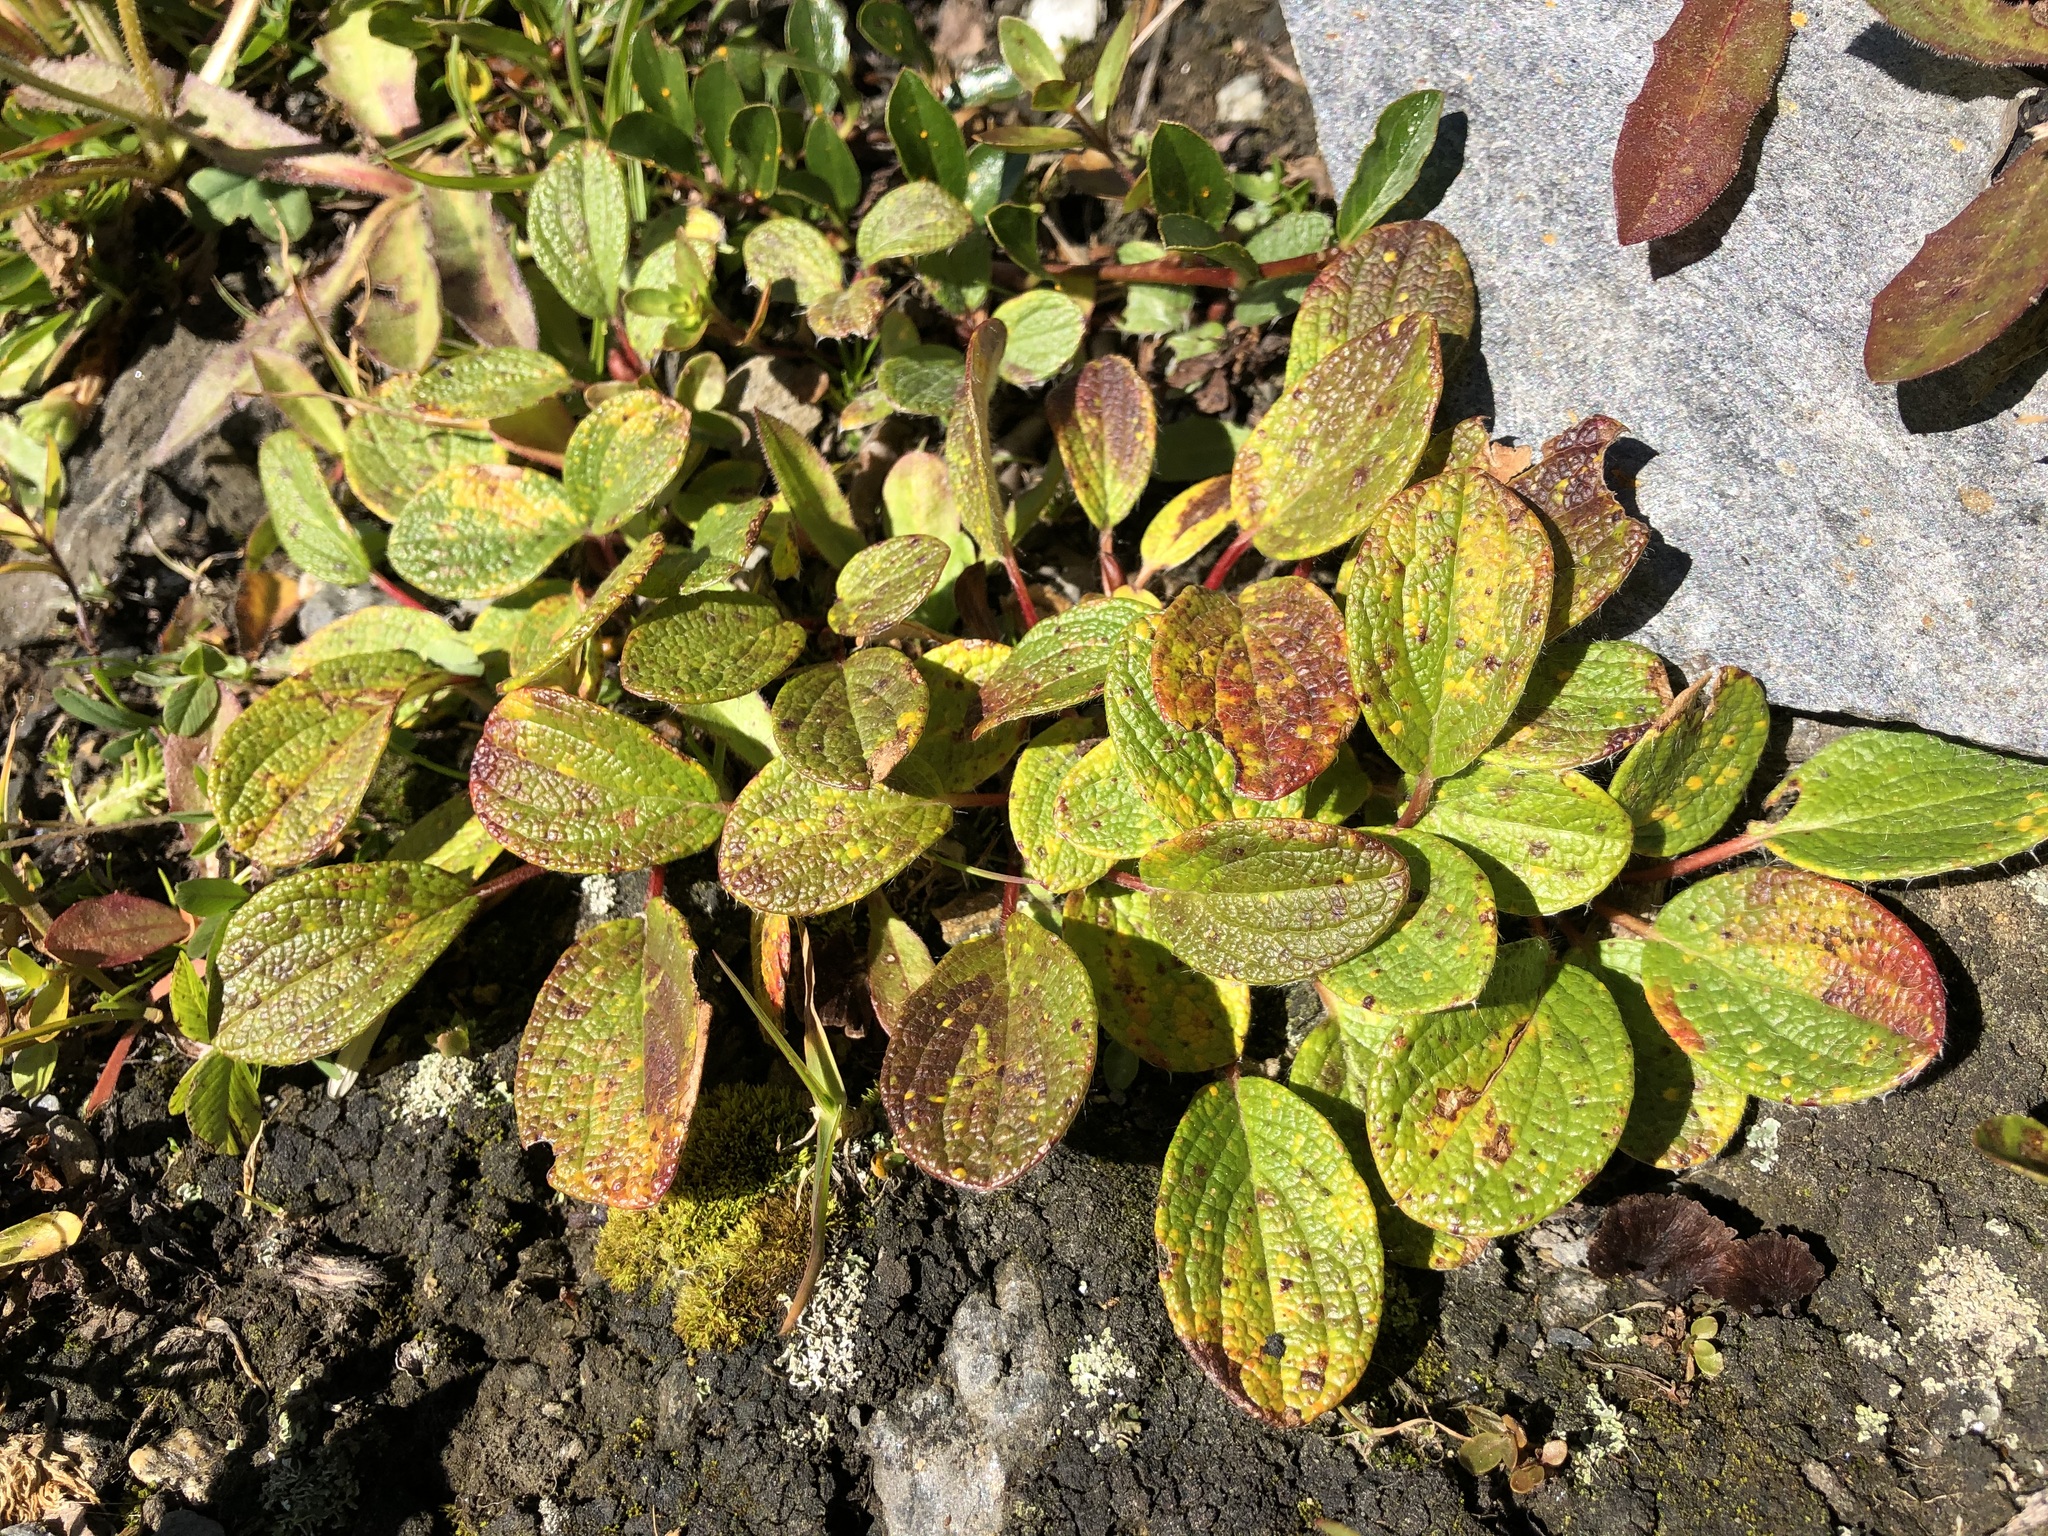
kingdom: Plantae
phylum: Tracheophyta
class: Magnoliopsida
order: Malpighiales
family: Salicaceae
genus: Salix
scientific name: Salix reticulata
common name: Net-leaved willow
